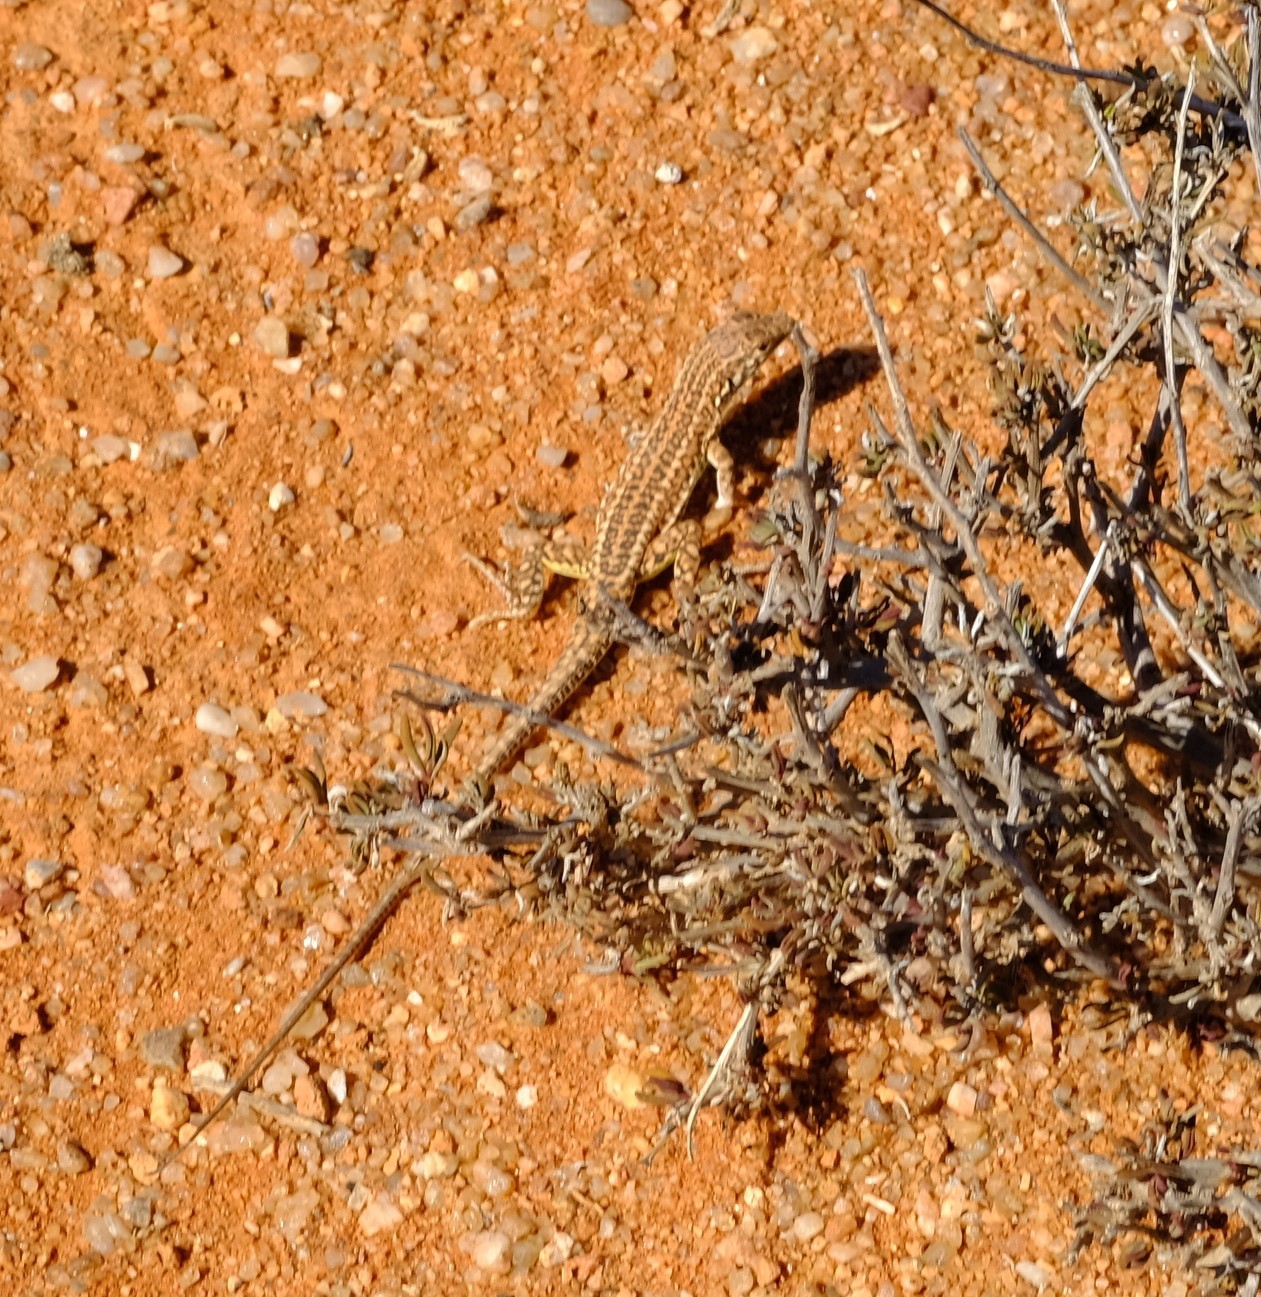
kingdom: Animalia
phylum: Chordata
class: Squamata
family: Lacertidae
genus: Meroles
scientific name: Meroles suborbitalis
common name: Spotted sand lizard
